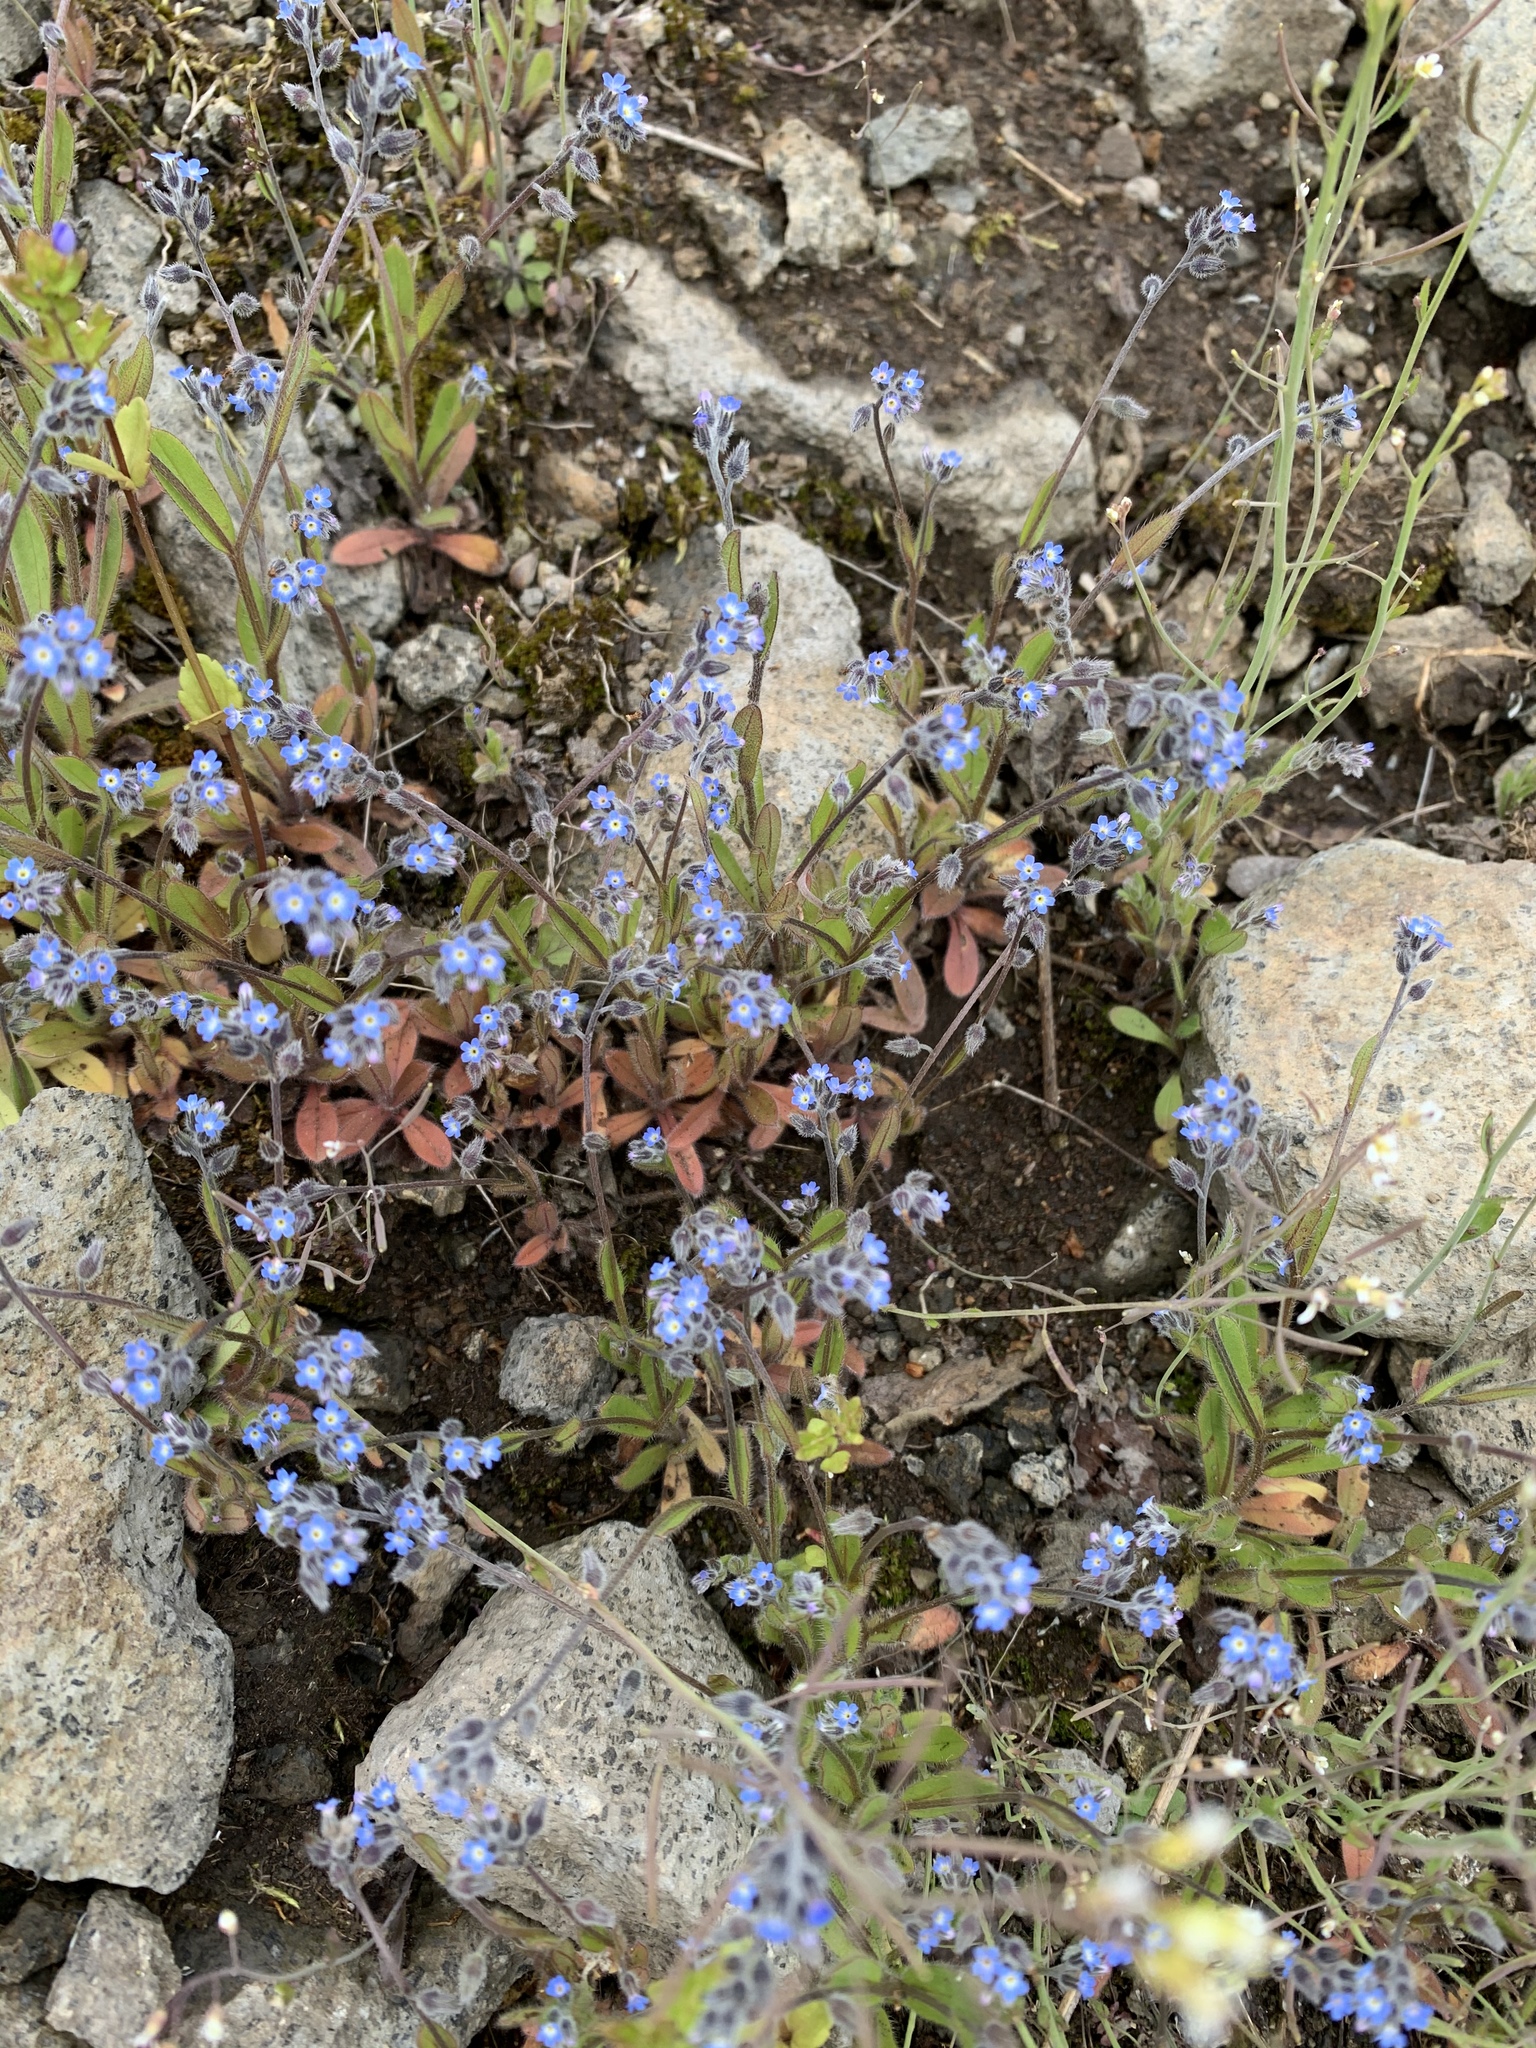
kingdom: Plantae
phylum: Tracheophyta
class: Magnoliopsida
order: Boraginales
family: Boraginaceae
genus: Myosotis
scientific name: Myosotis ramosissima
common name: Early forget-me-not
